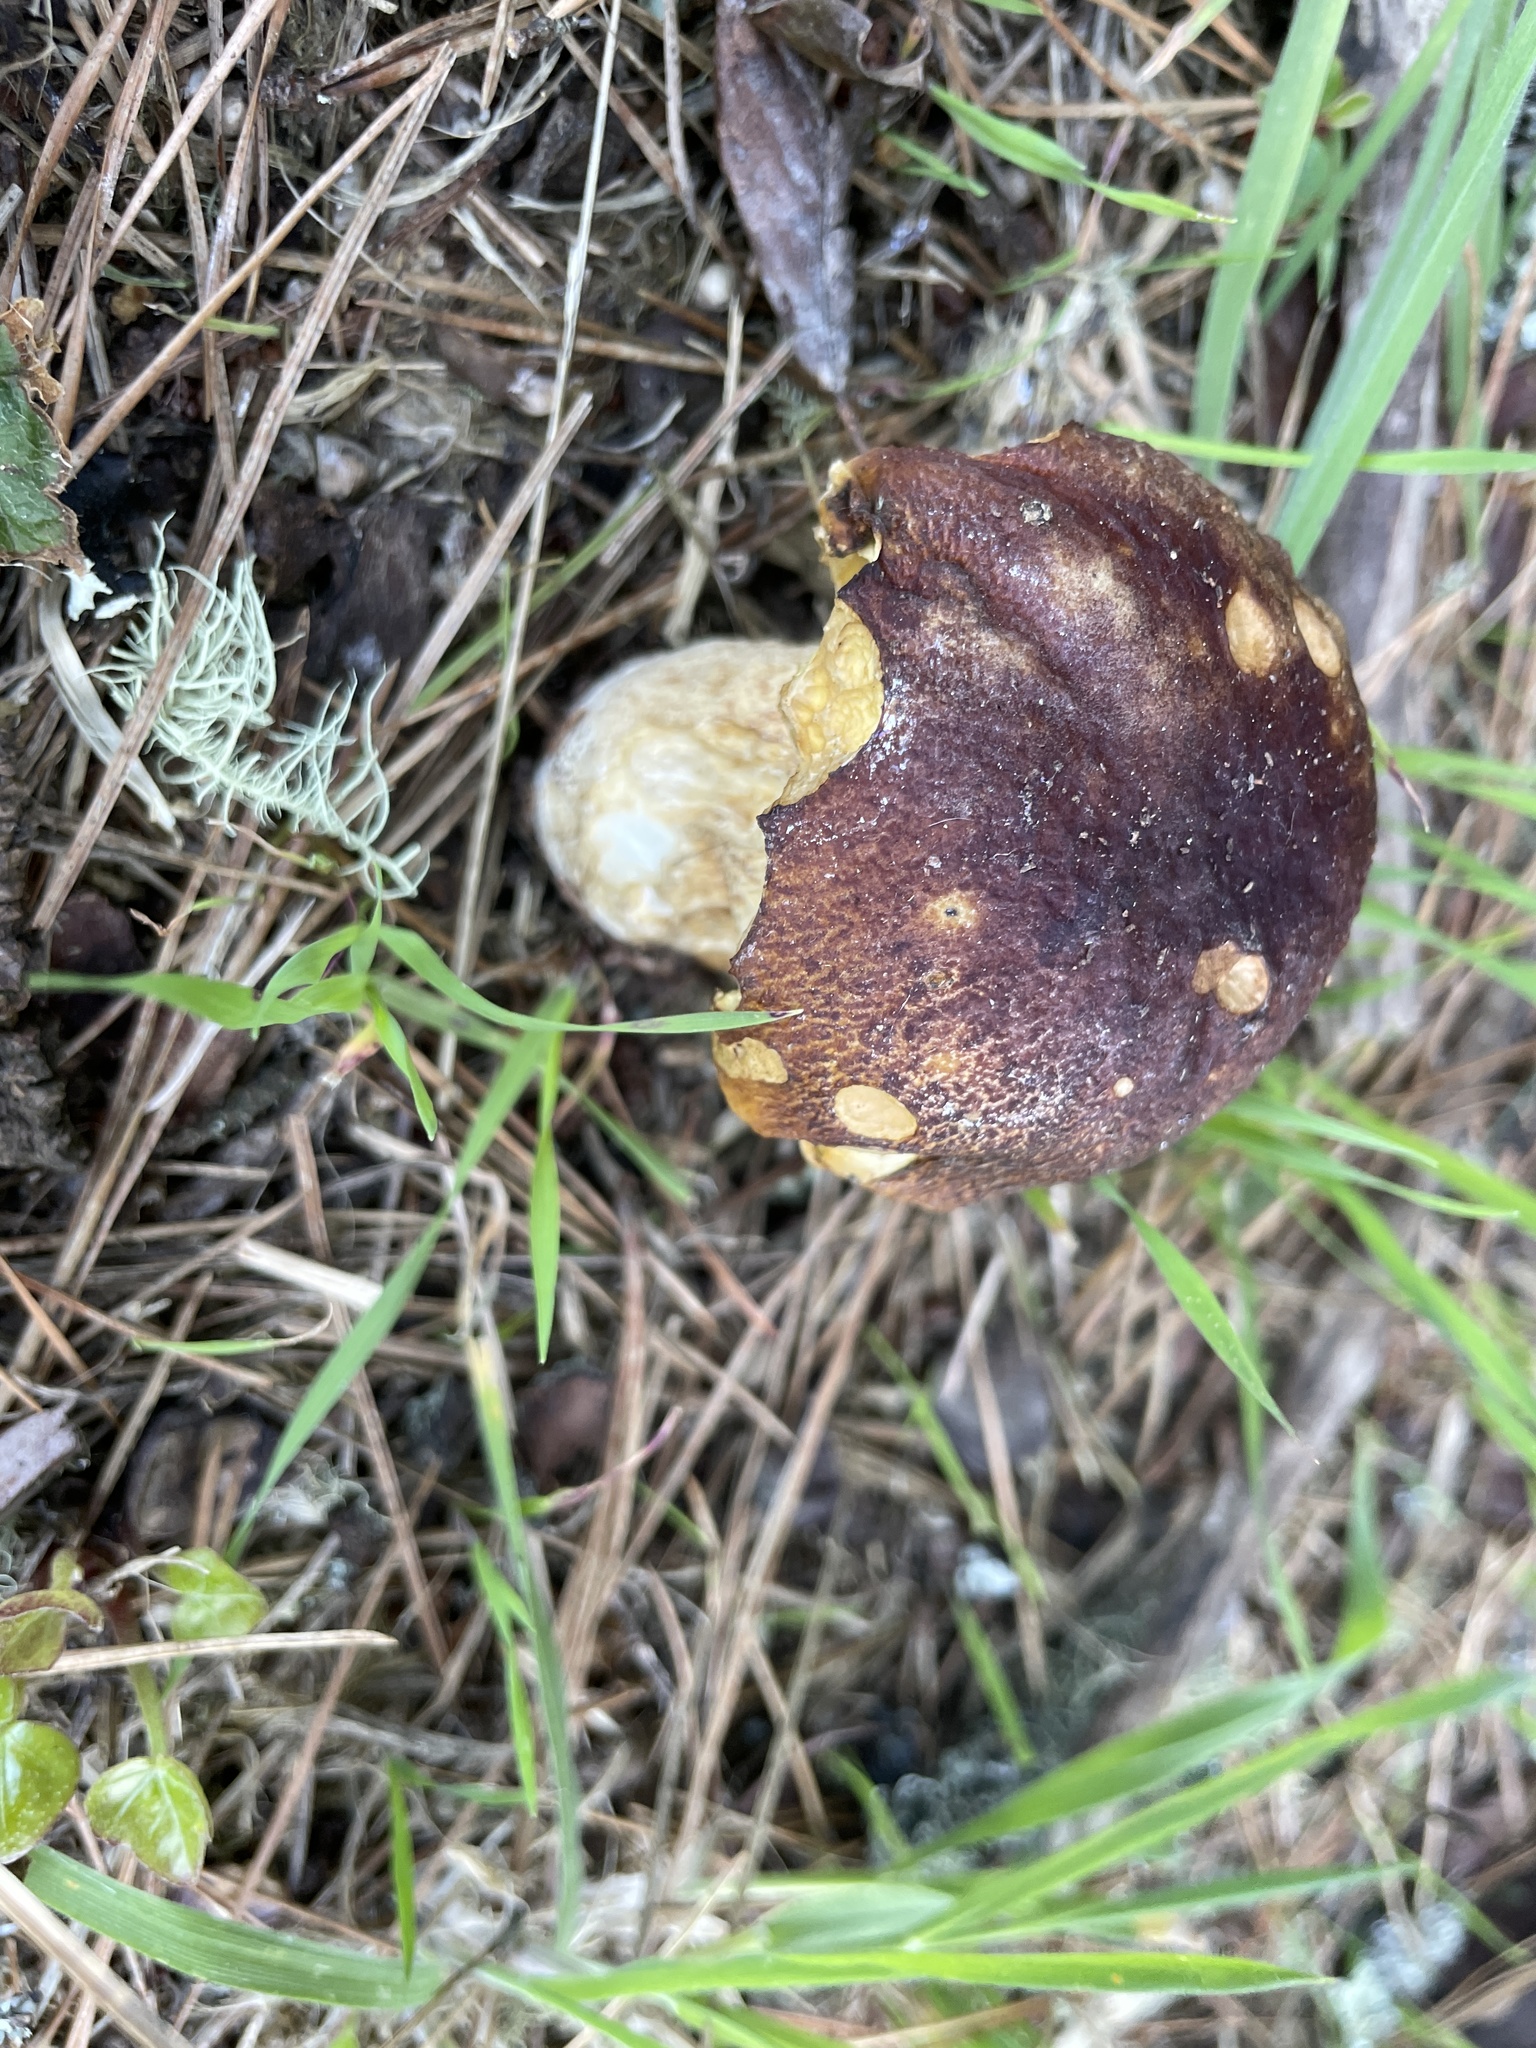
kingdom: Fungi
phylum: Basidiomycota
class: Agaricomycetes
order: Boletales
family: Boletaceae
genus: Boletus
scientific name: Boletus edulis
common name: Cep
